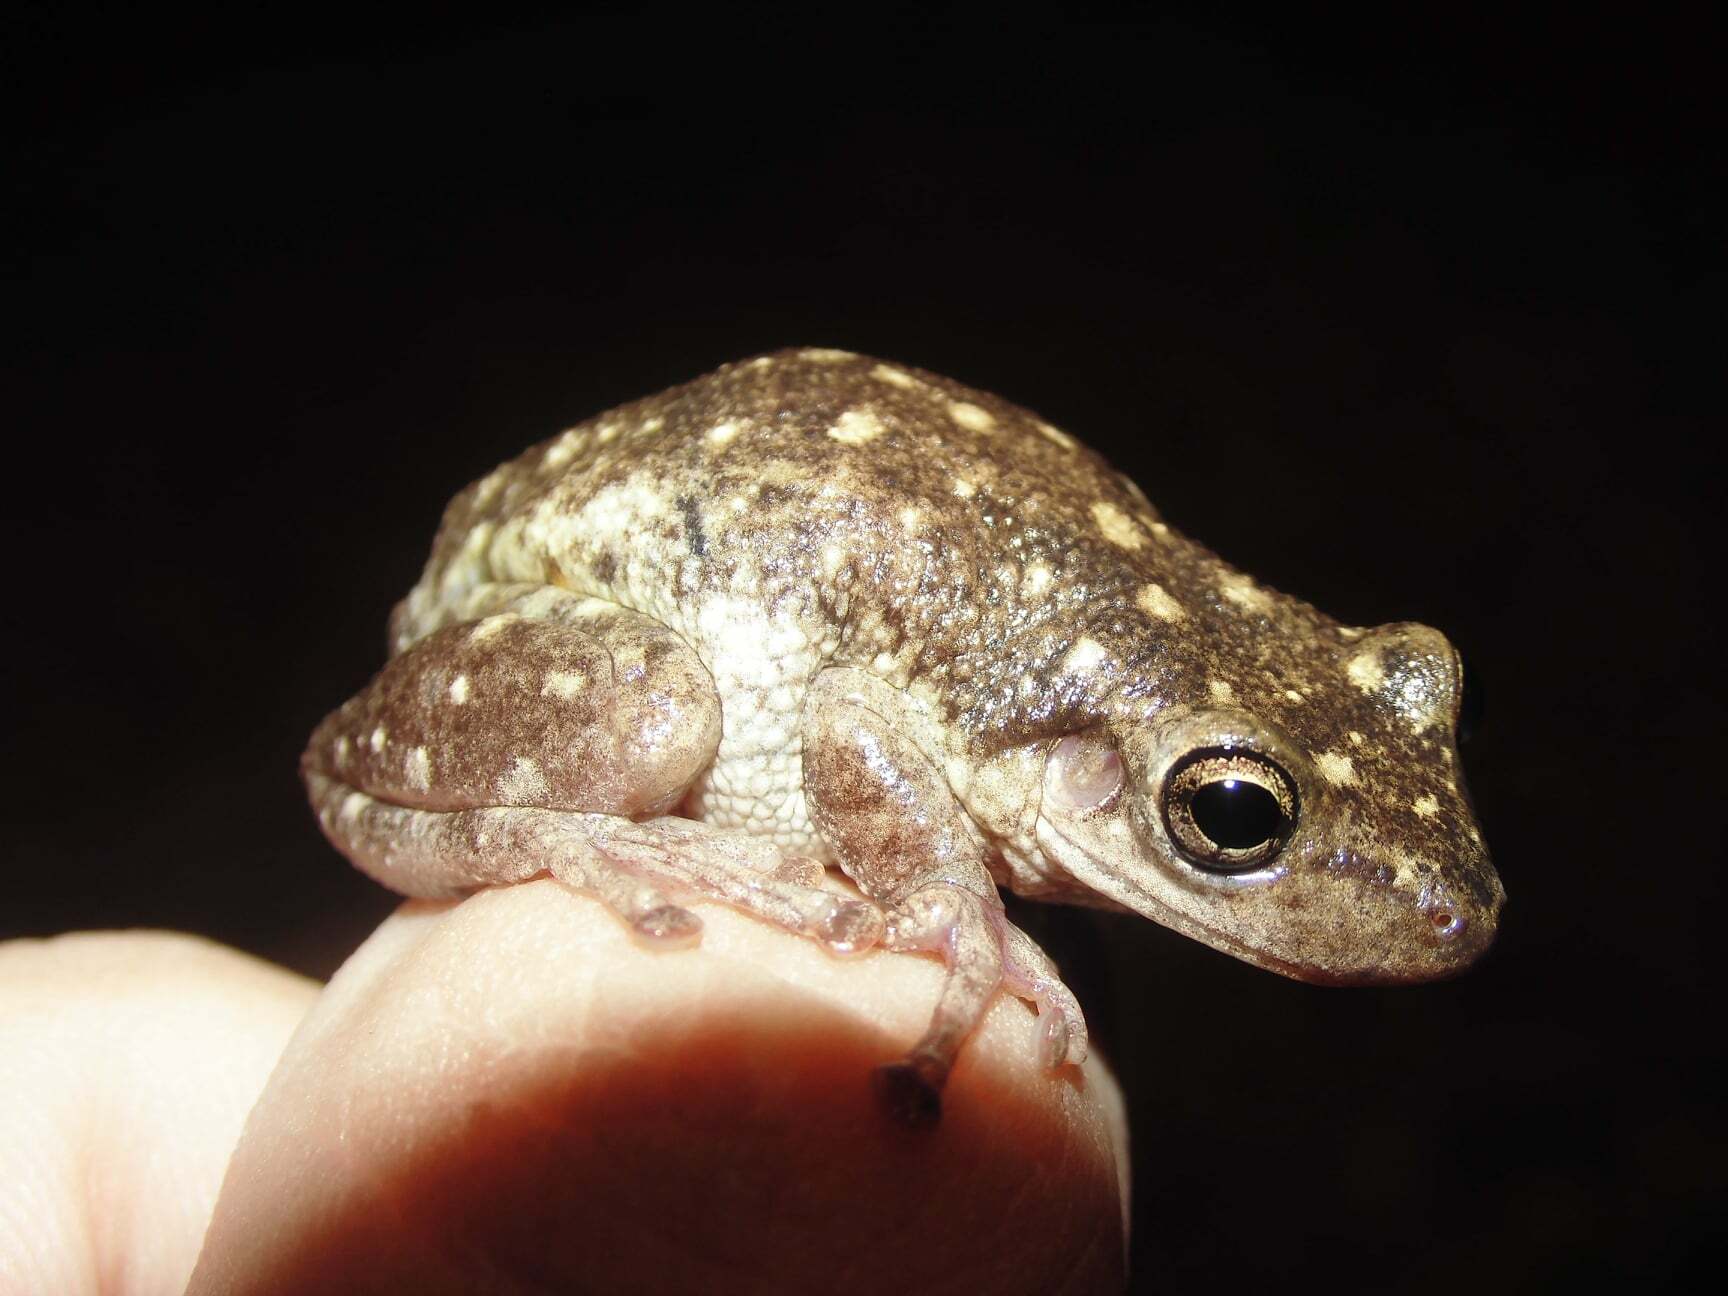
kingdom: Animalia
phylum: Chordata
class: Amphibia
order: Anura
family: Hylidae
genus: Scinax
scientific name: Scinax nasicus
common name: Lesser snouted treefrog
